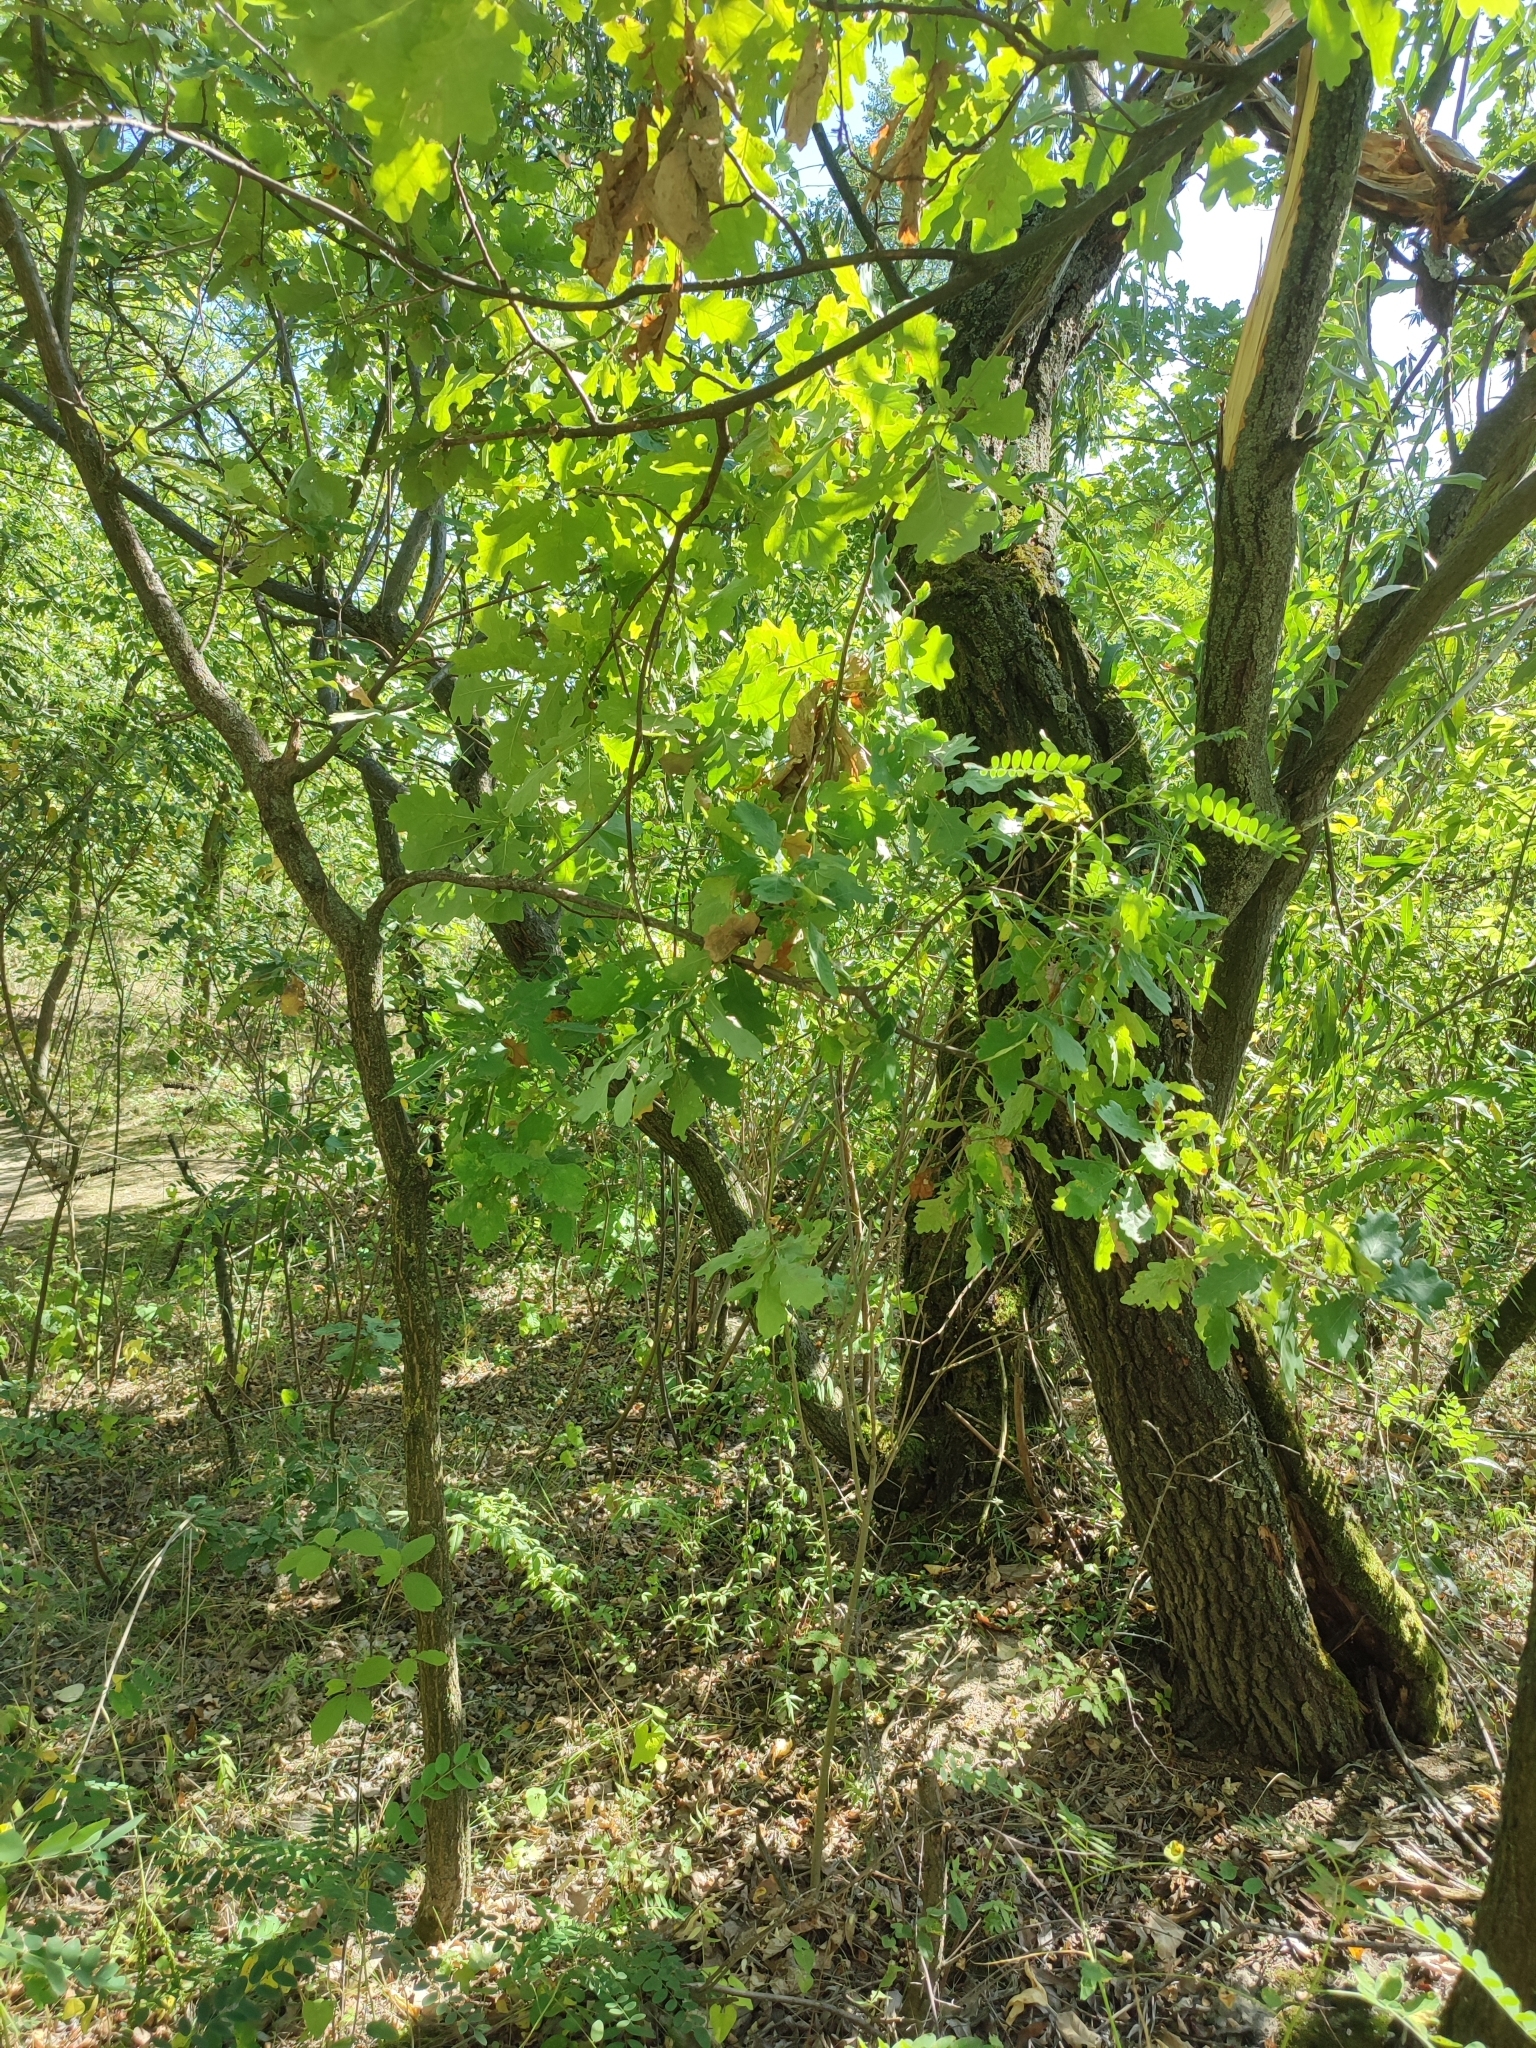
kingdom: Plantae
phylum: Tracheophyta
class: Magnoliopsida
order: Fagales
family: Fagaceae
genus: Quercus
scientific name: Quercus robur
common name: Pedunculate oak
